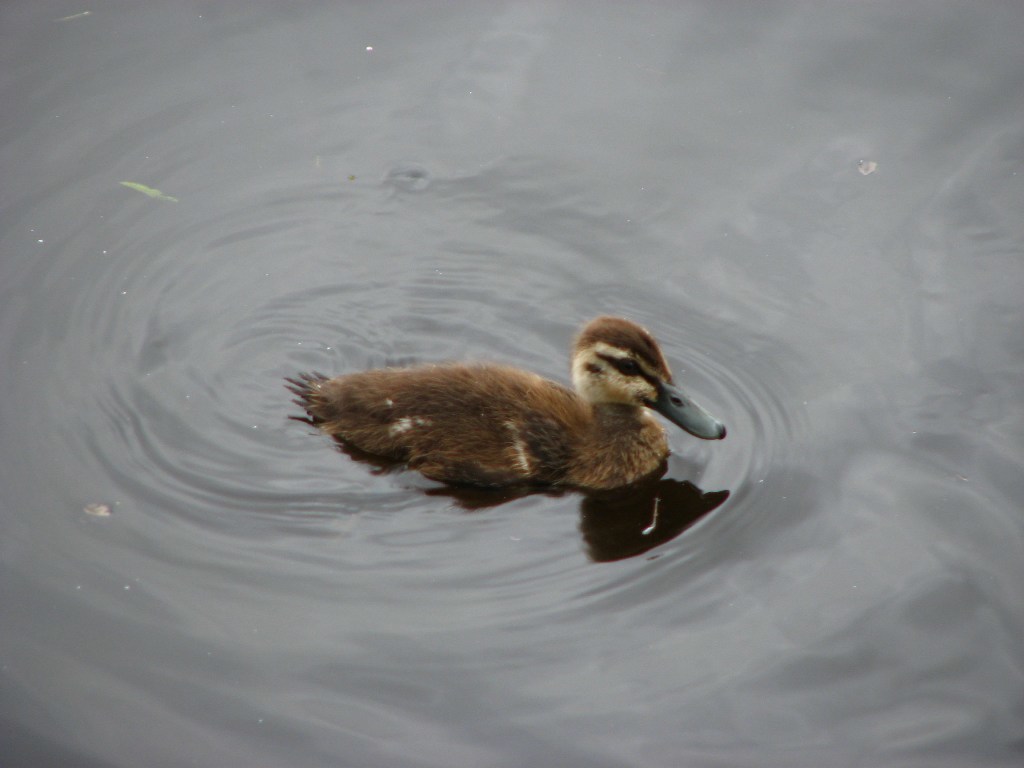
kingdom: Animalia
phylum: Chordata
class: Aves
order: Anseriformes
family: Anatidae
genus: Anas
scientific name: Anas superciliosa
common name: Pacific black duck
